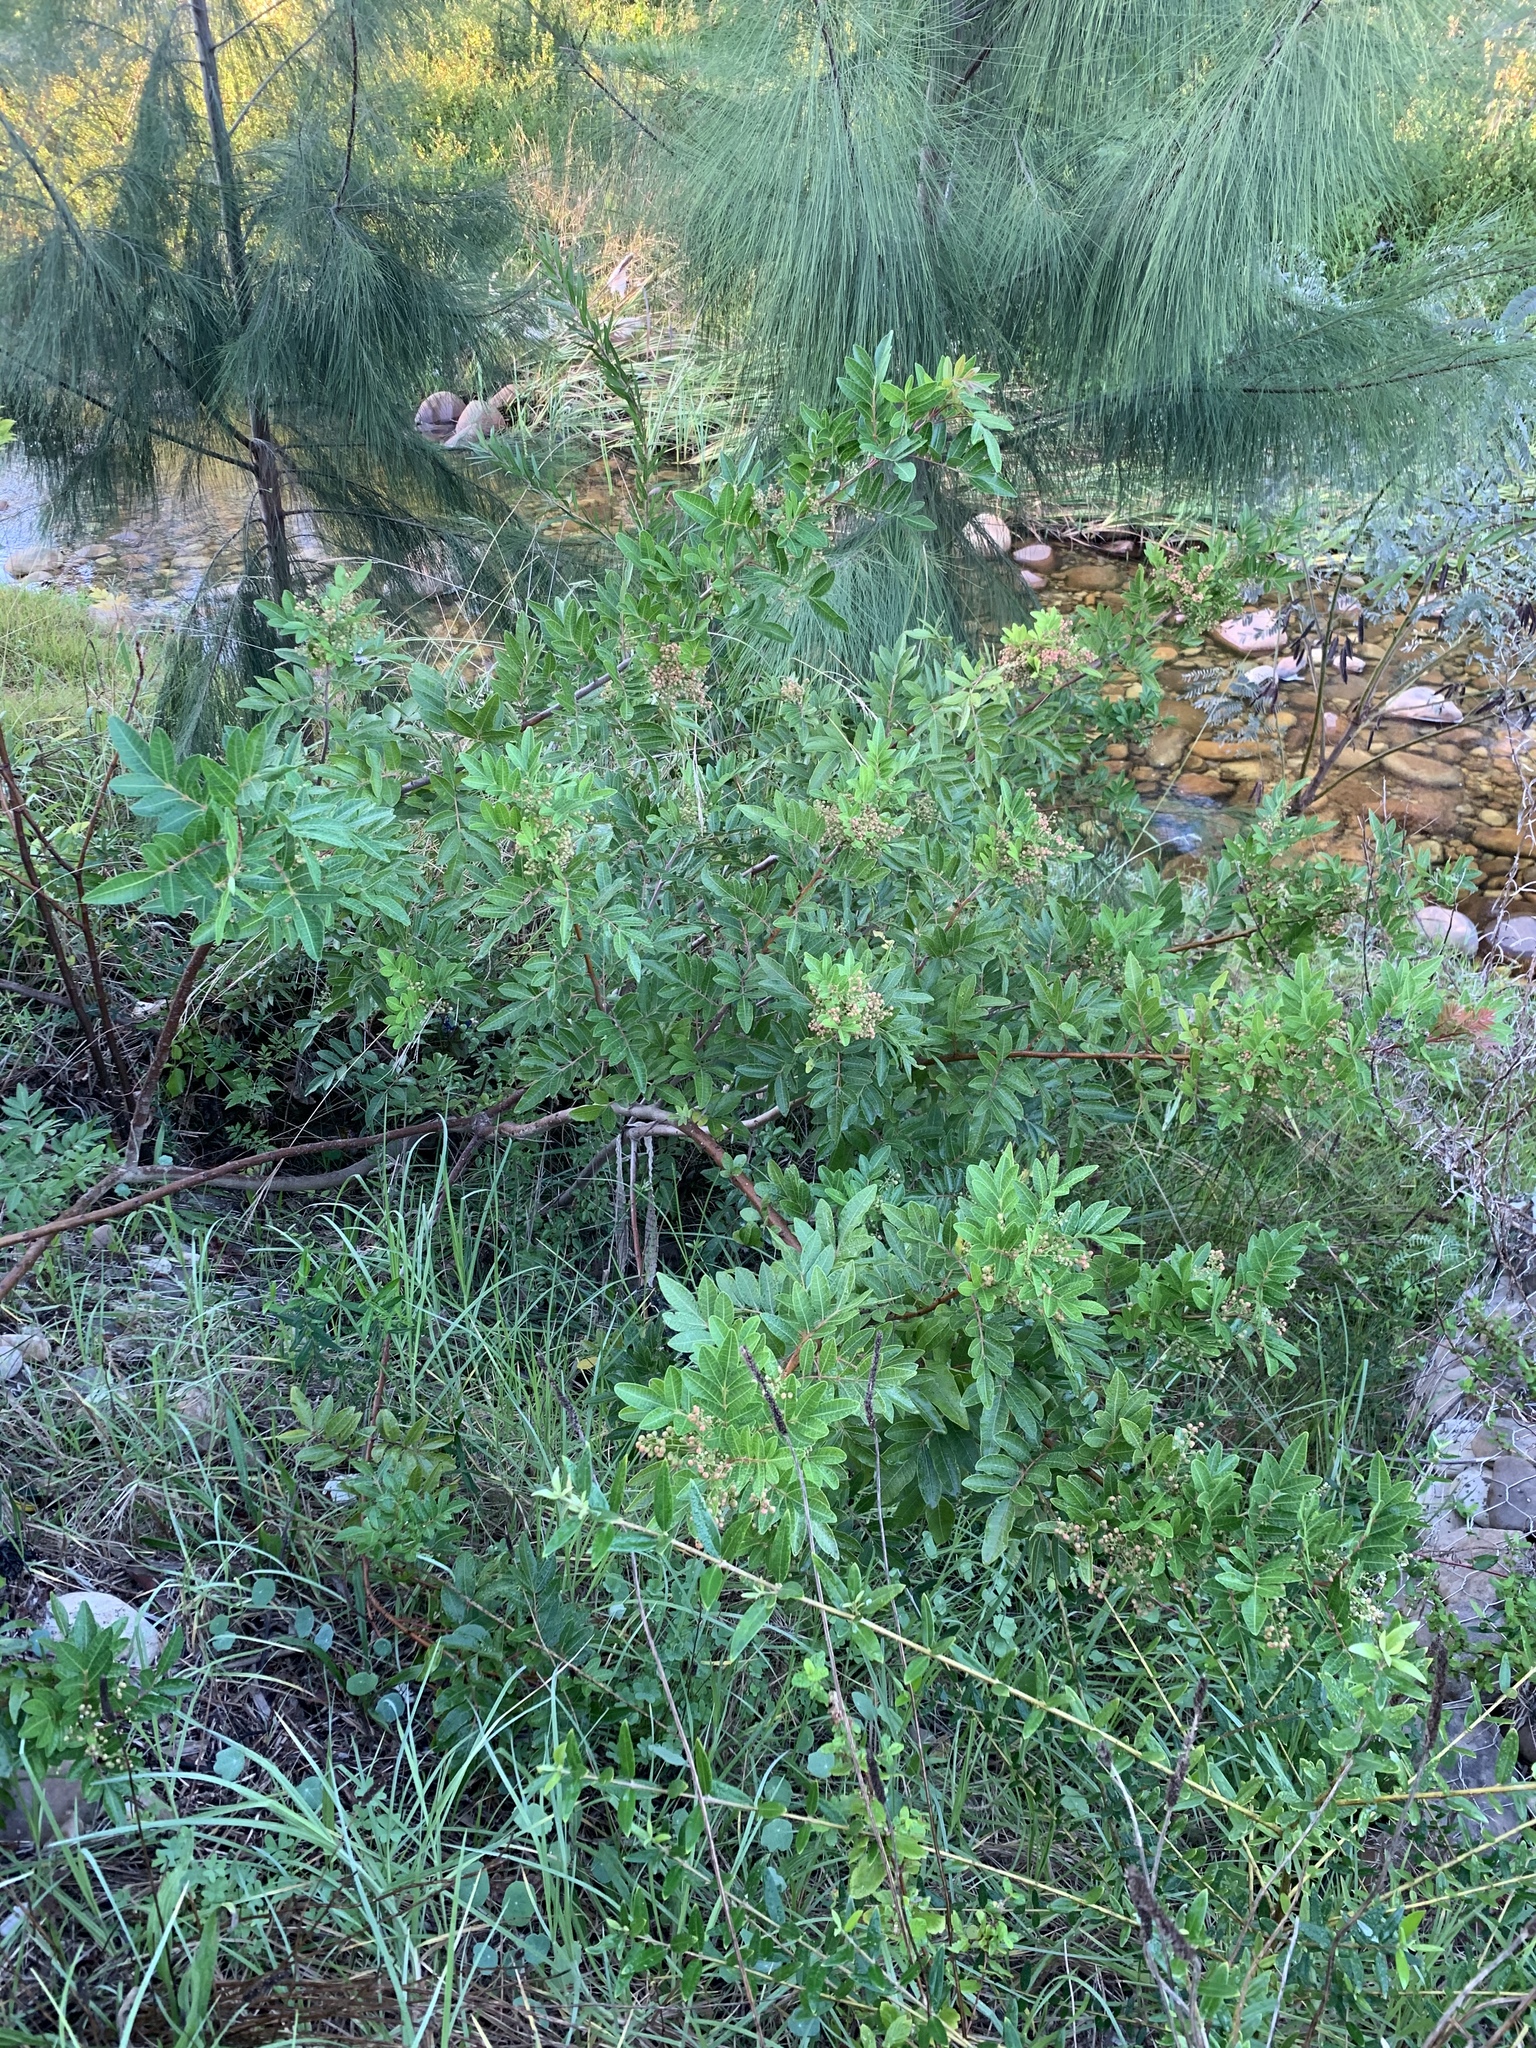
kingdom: Plantae
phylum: Tracheophyta
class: Magnoliopsida
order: Sapindales
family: Anacardiaceae
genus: Schinus
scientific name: Schinus terebinthifolia
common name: Brazilian peppertree
